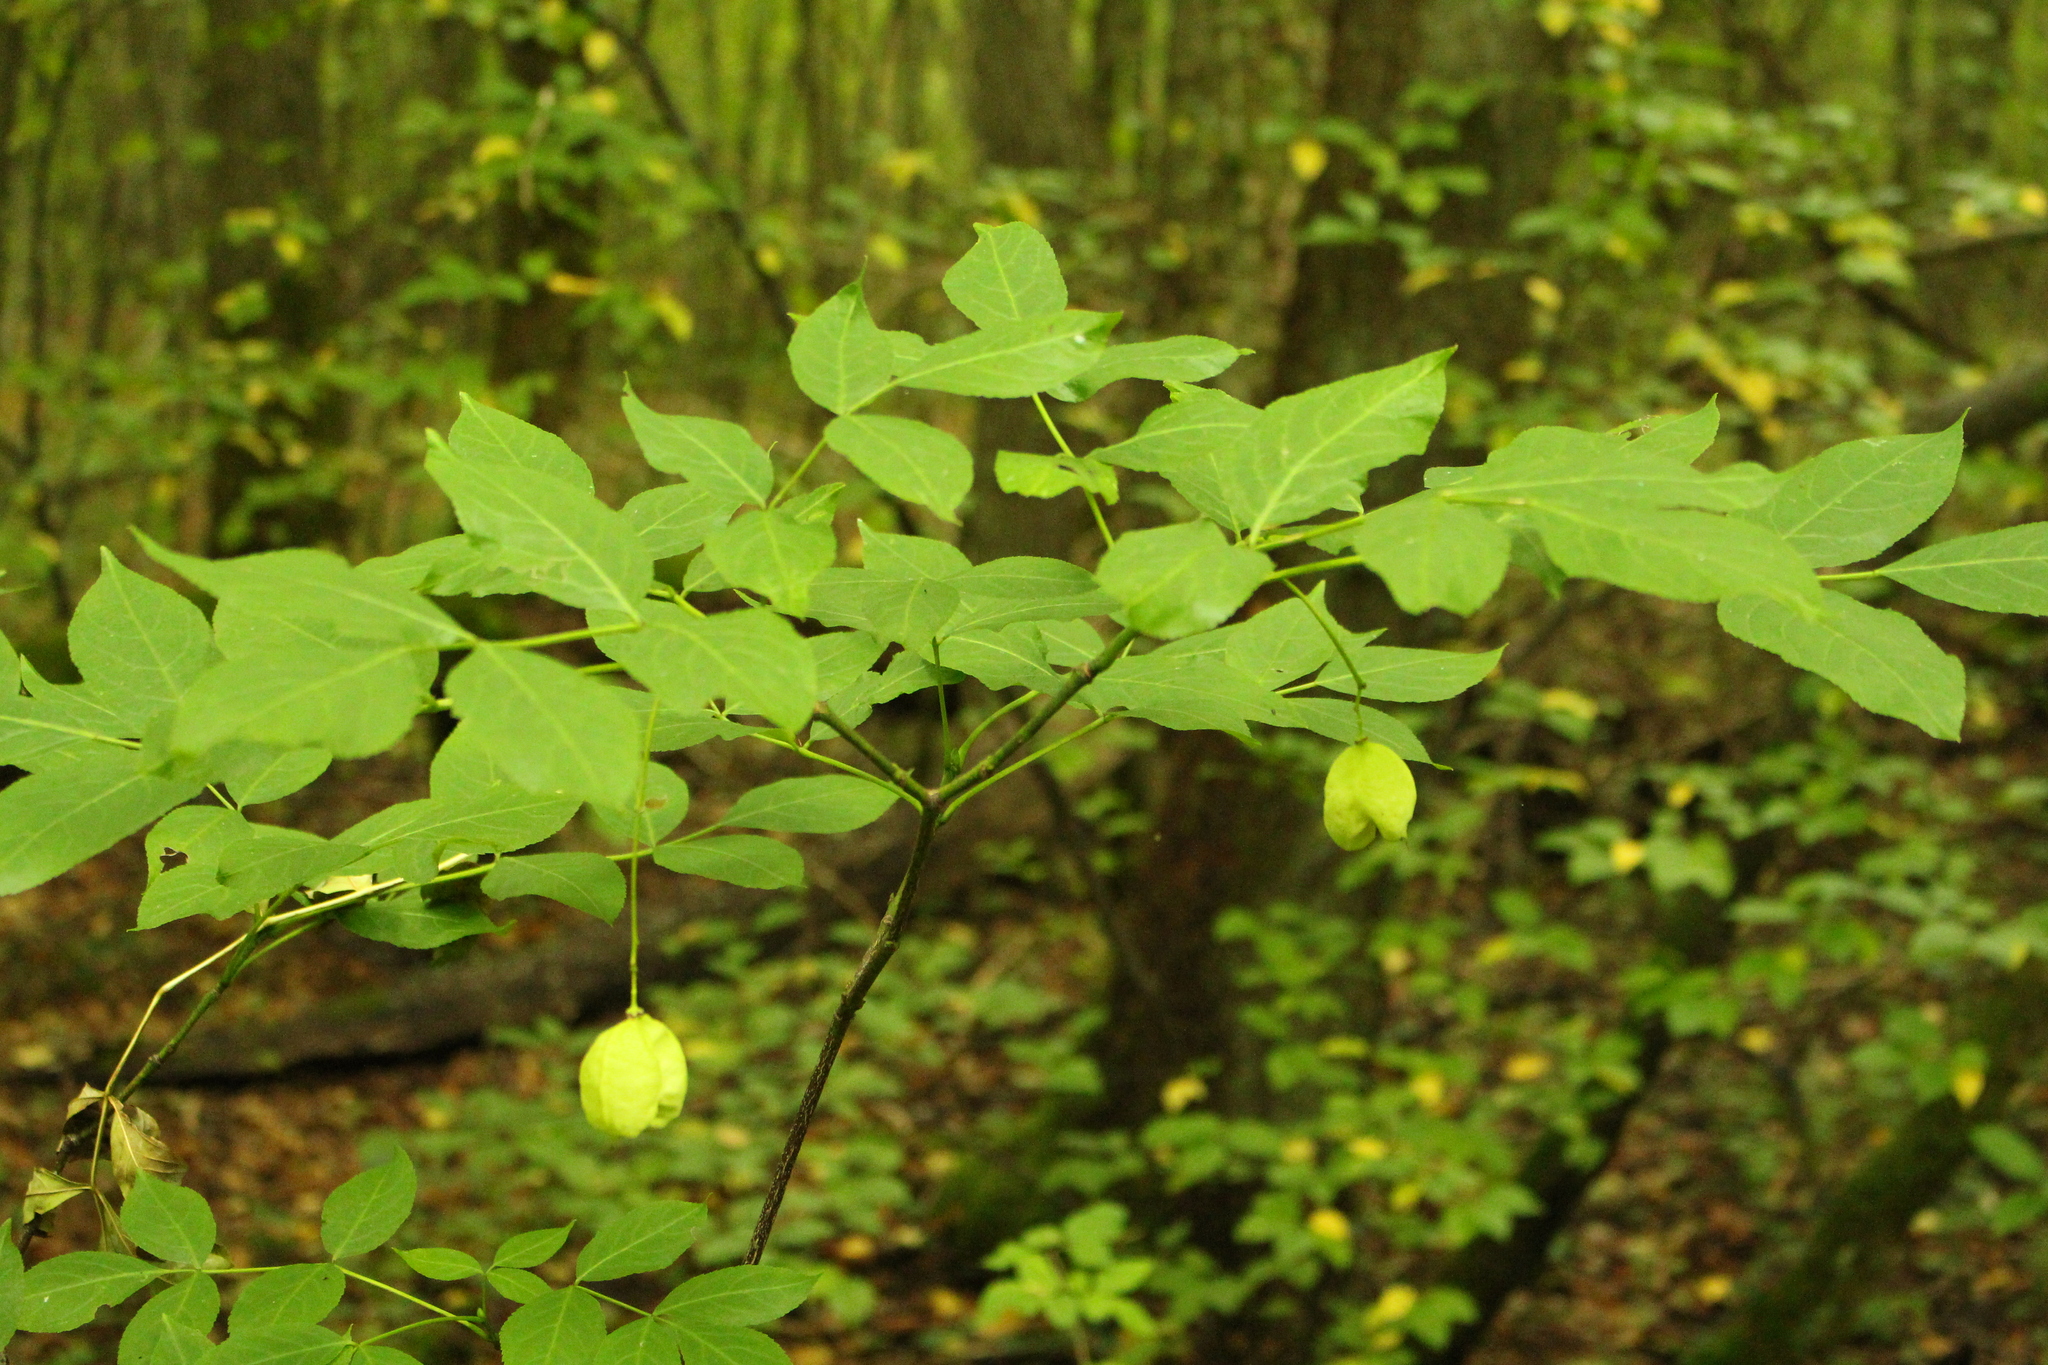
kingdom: Plantae
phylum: Tracheophyta
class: Magnoliopsida
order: Crossosomatales
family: Staphyleaceae
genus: Staphylea
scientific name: Staphylea pinnata
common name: Bladdernut
